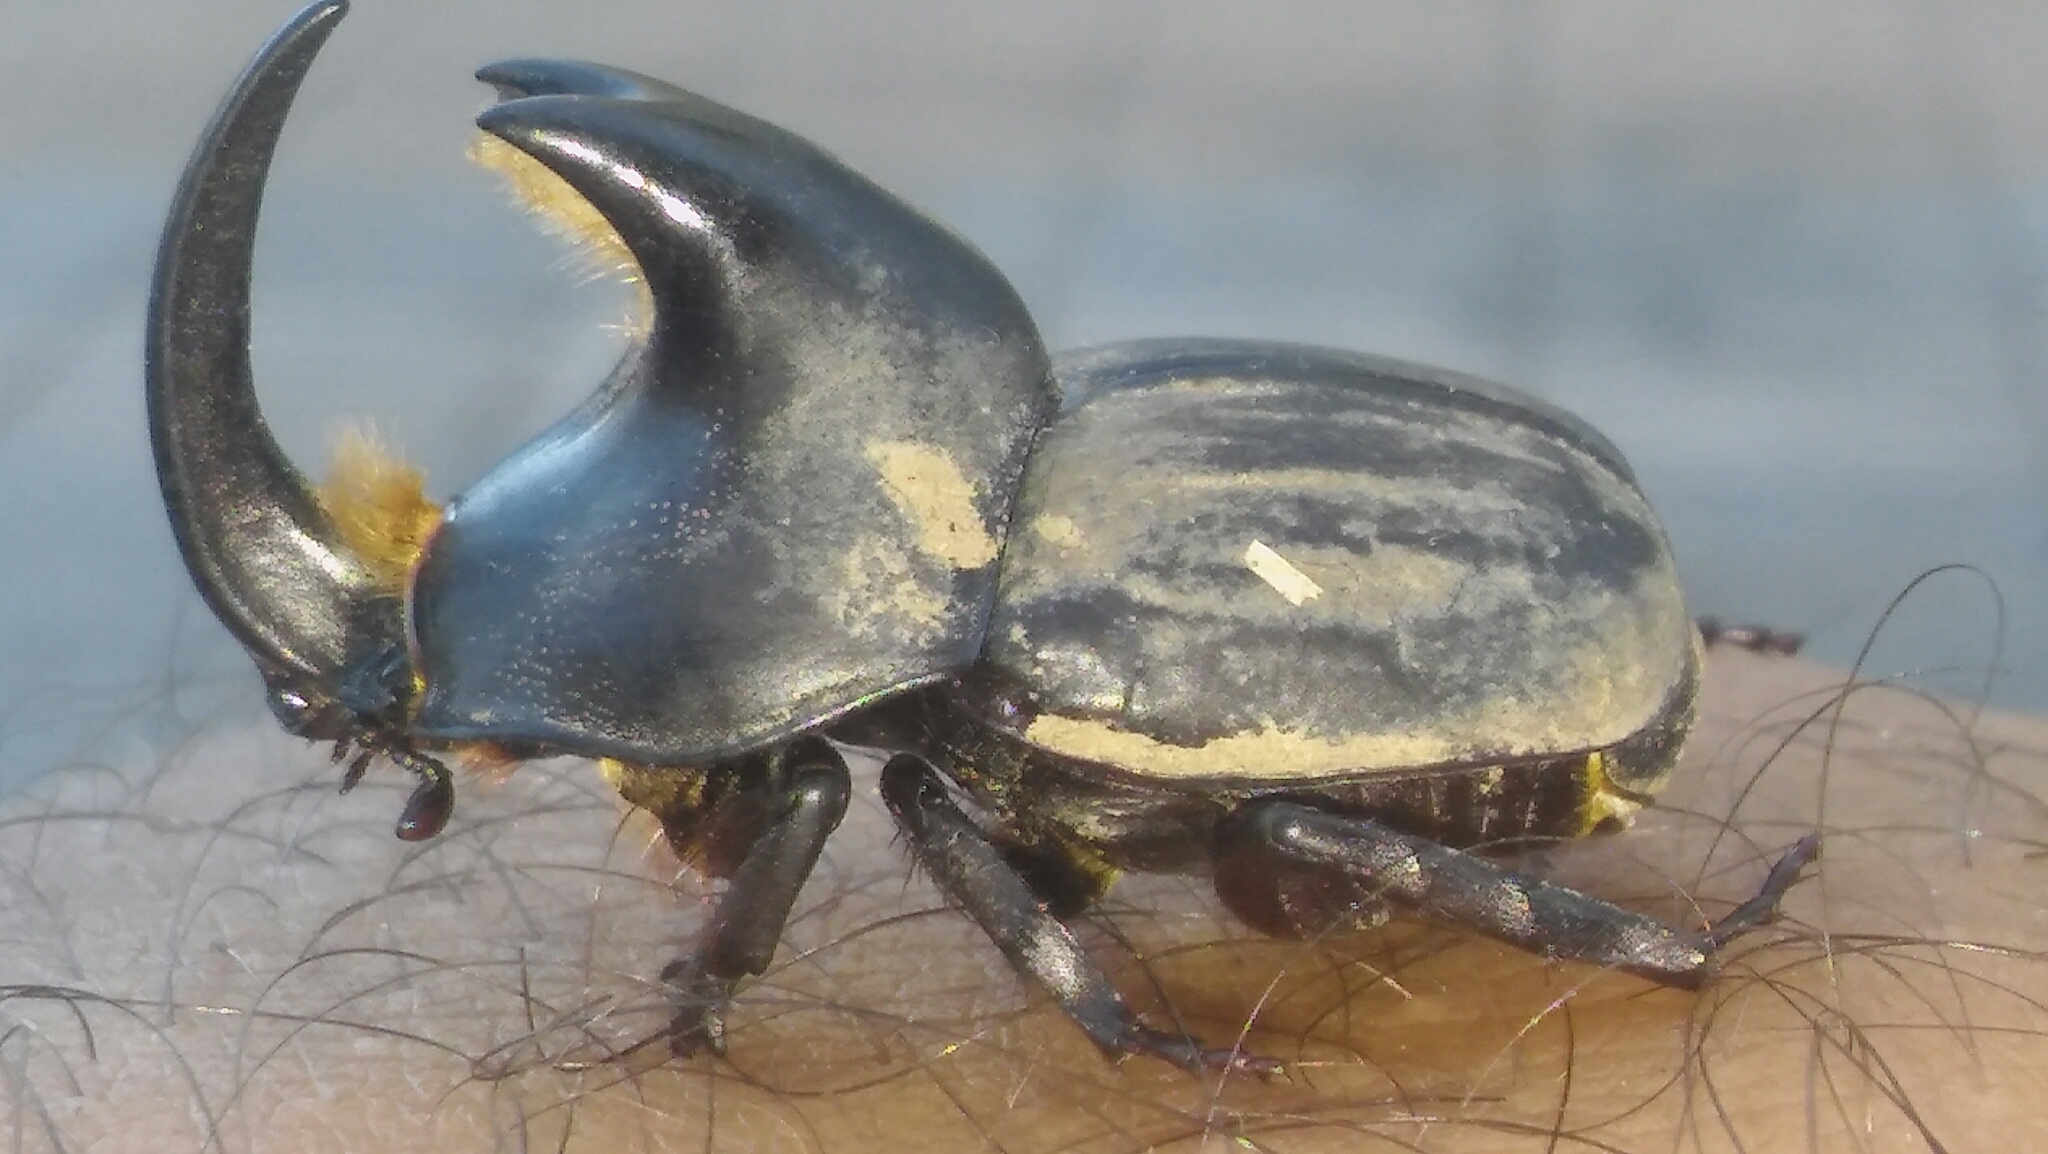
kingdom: Animalia
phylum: Arthropoda
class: Insecta
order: Coleoptera
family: Scarabaeidae
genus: Diloboderus
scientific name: Diloboderus abderus
